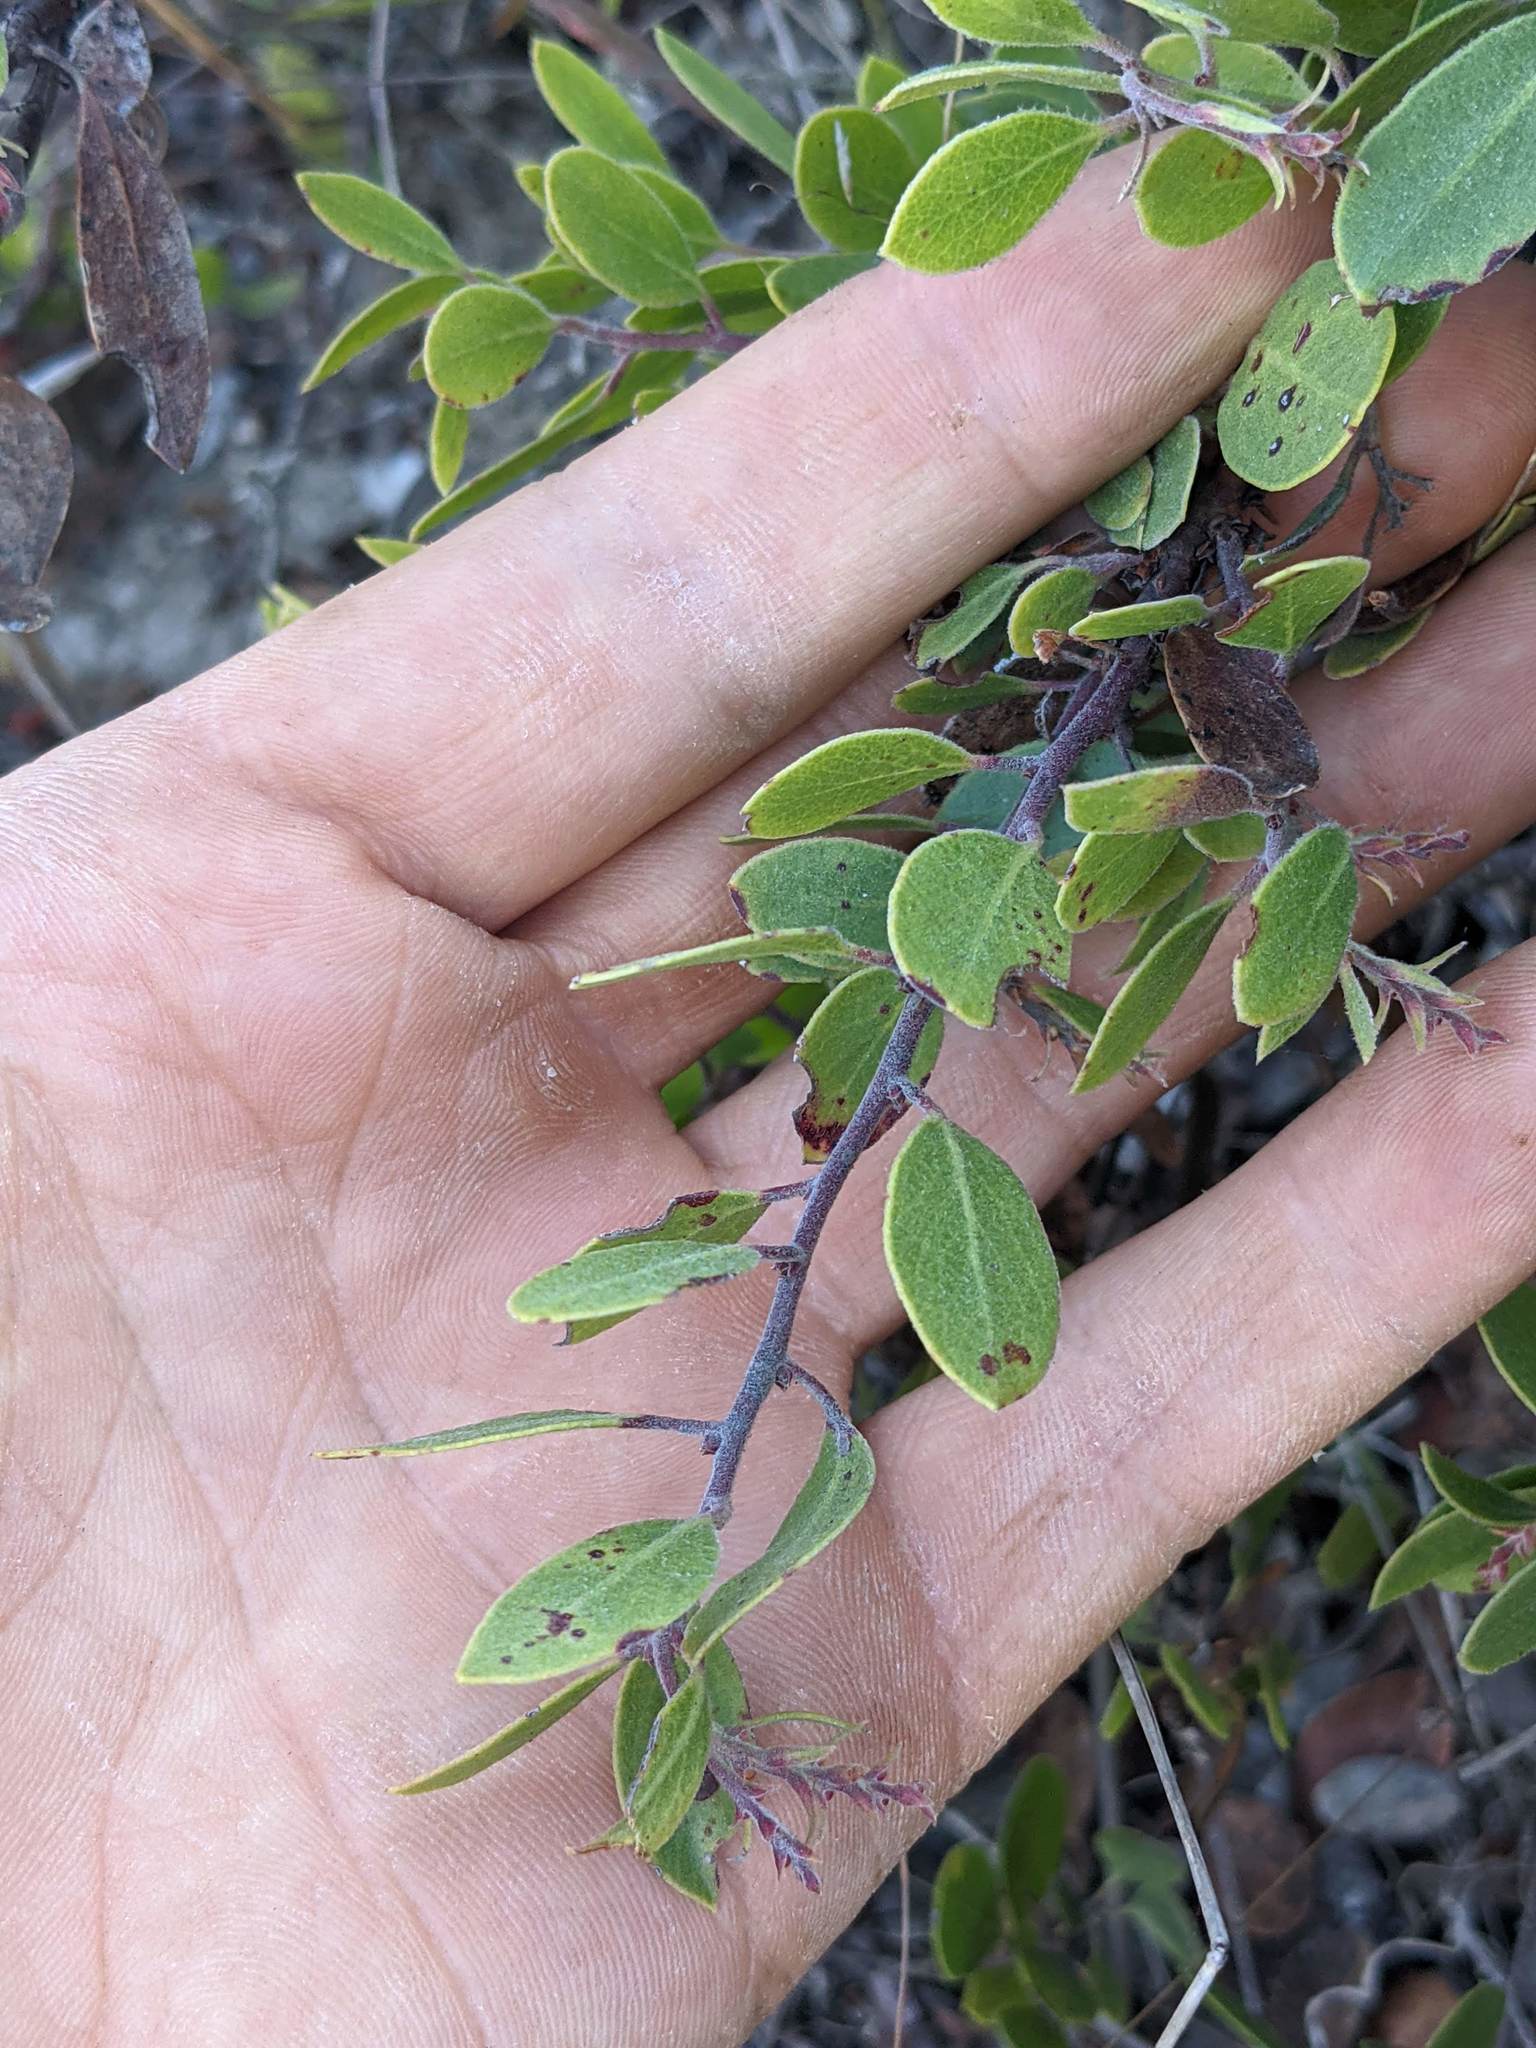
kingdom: Plantae
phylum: Tracheophyta
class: Magnoliopsida
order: Ericales
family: Ericaceae
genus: Arctostaphylos
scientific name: Arctostaphylos rudis
